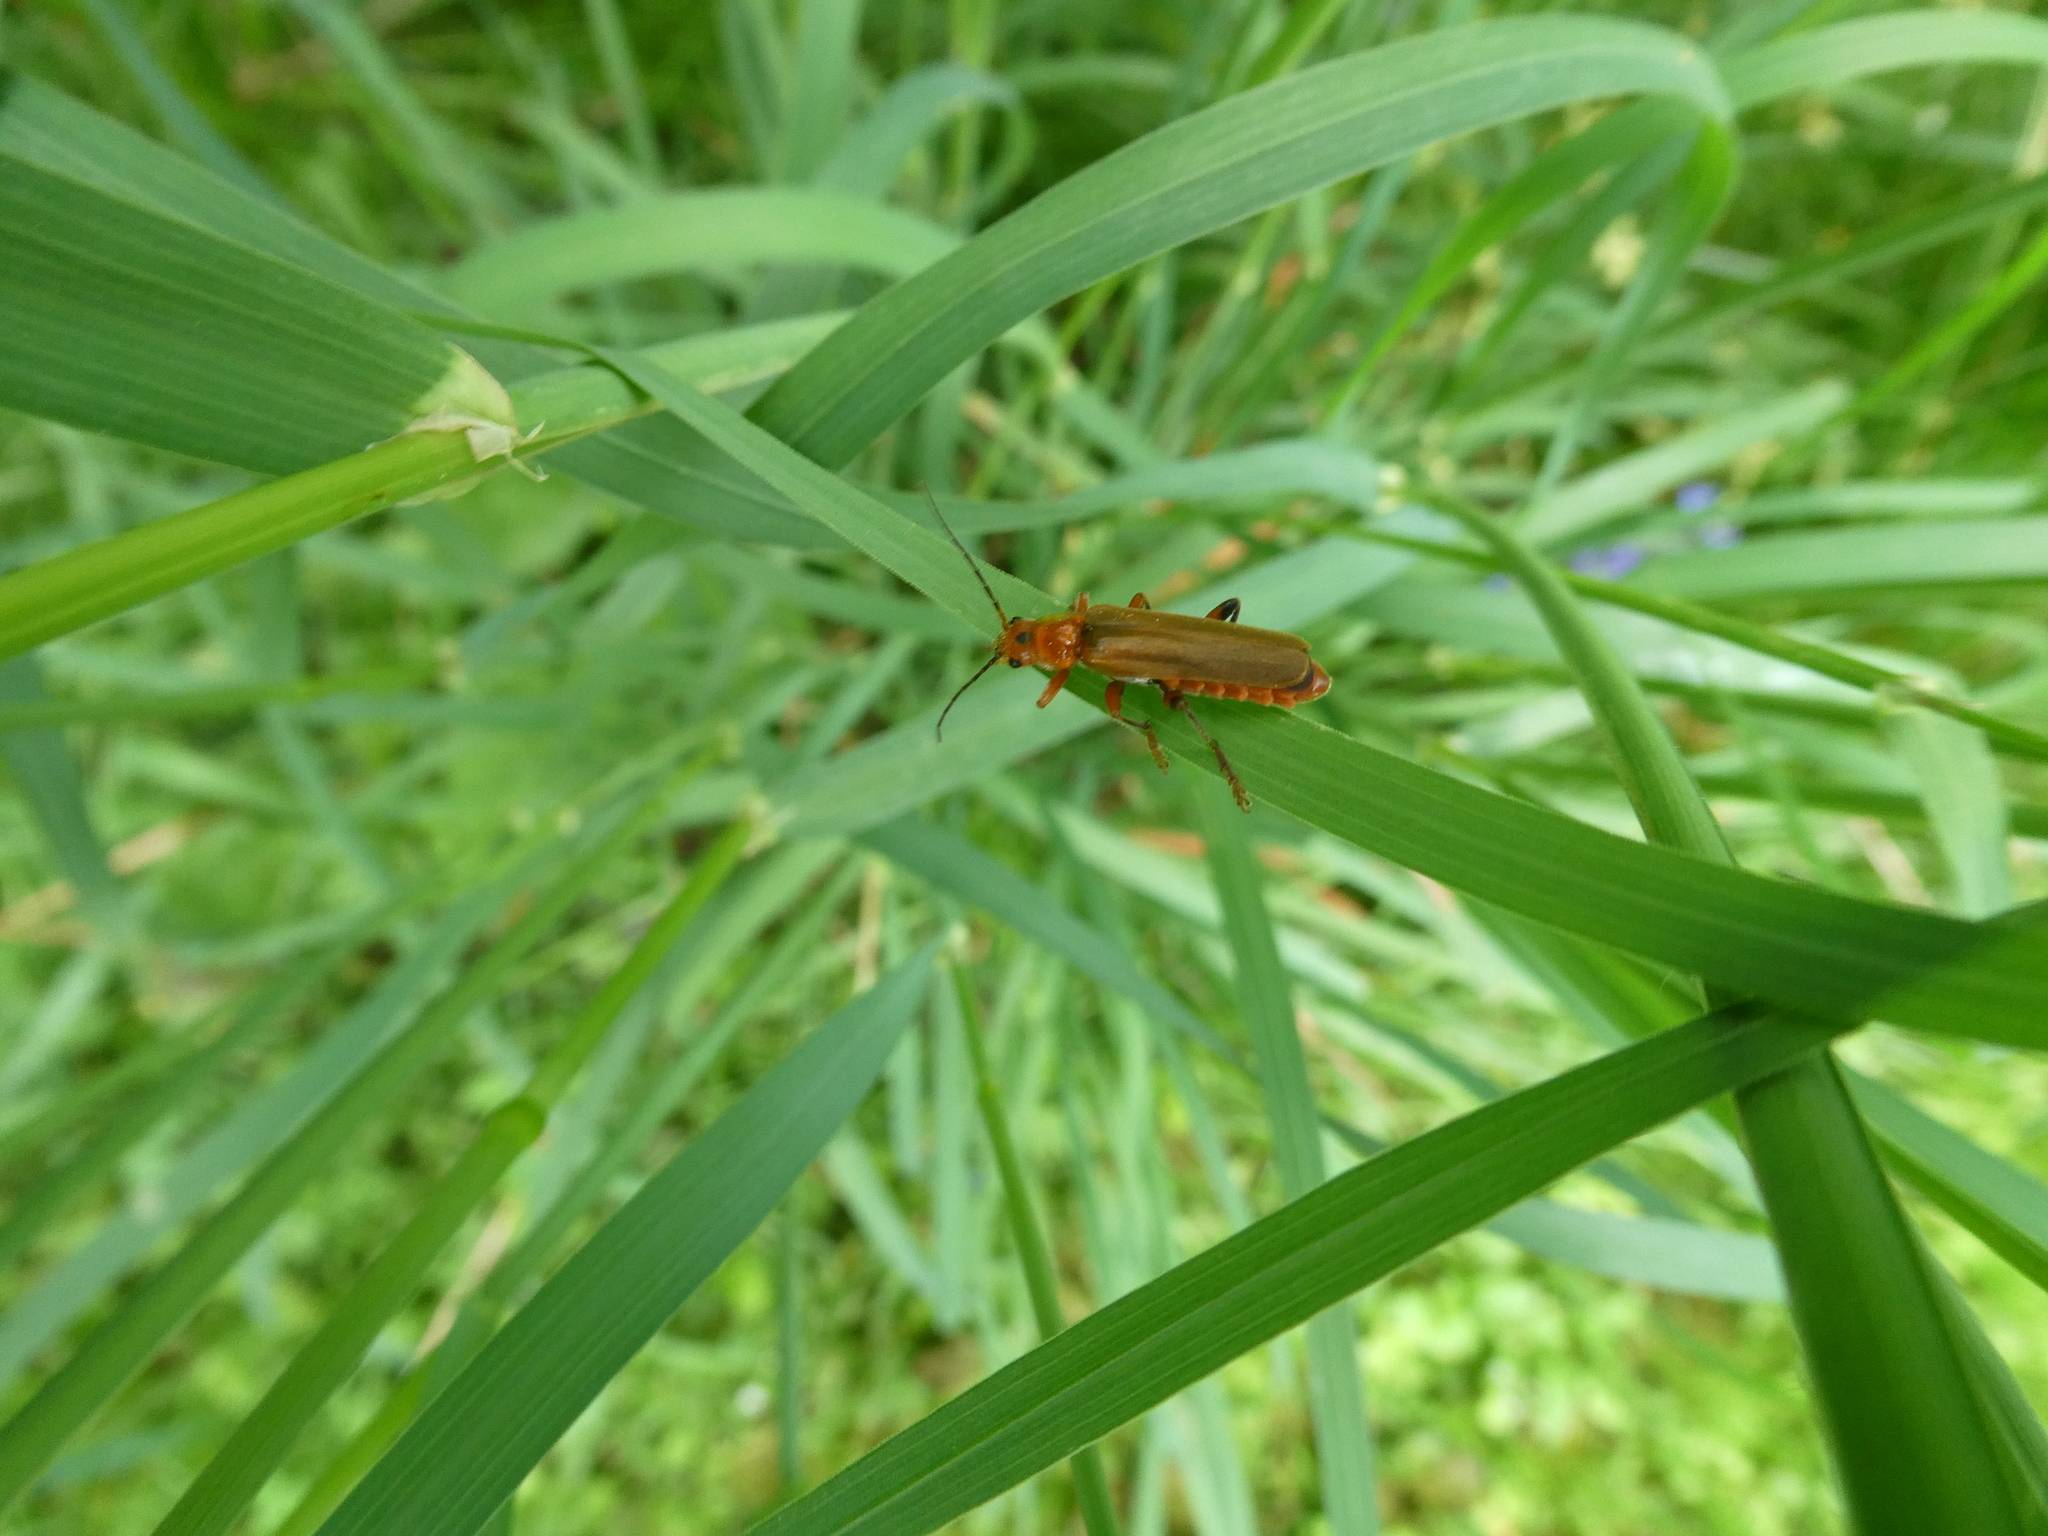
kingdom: Animalia
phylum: Arthropoda
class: Insecta
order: Coleoptera
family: Cantharidae
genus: Cantharis
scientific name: Cantharis livida
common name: Livid soldier beetle
